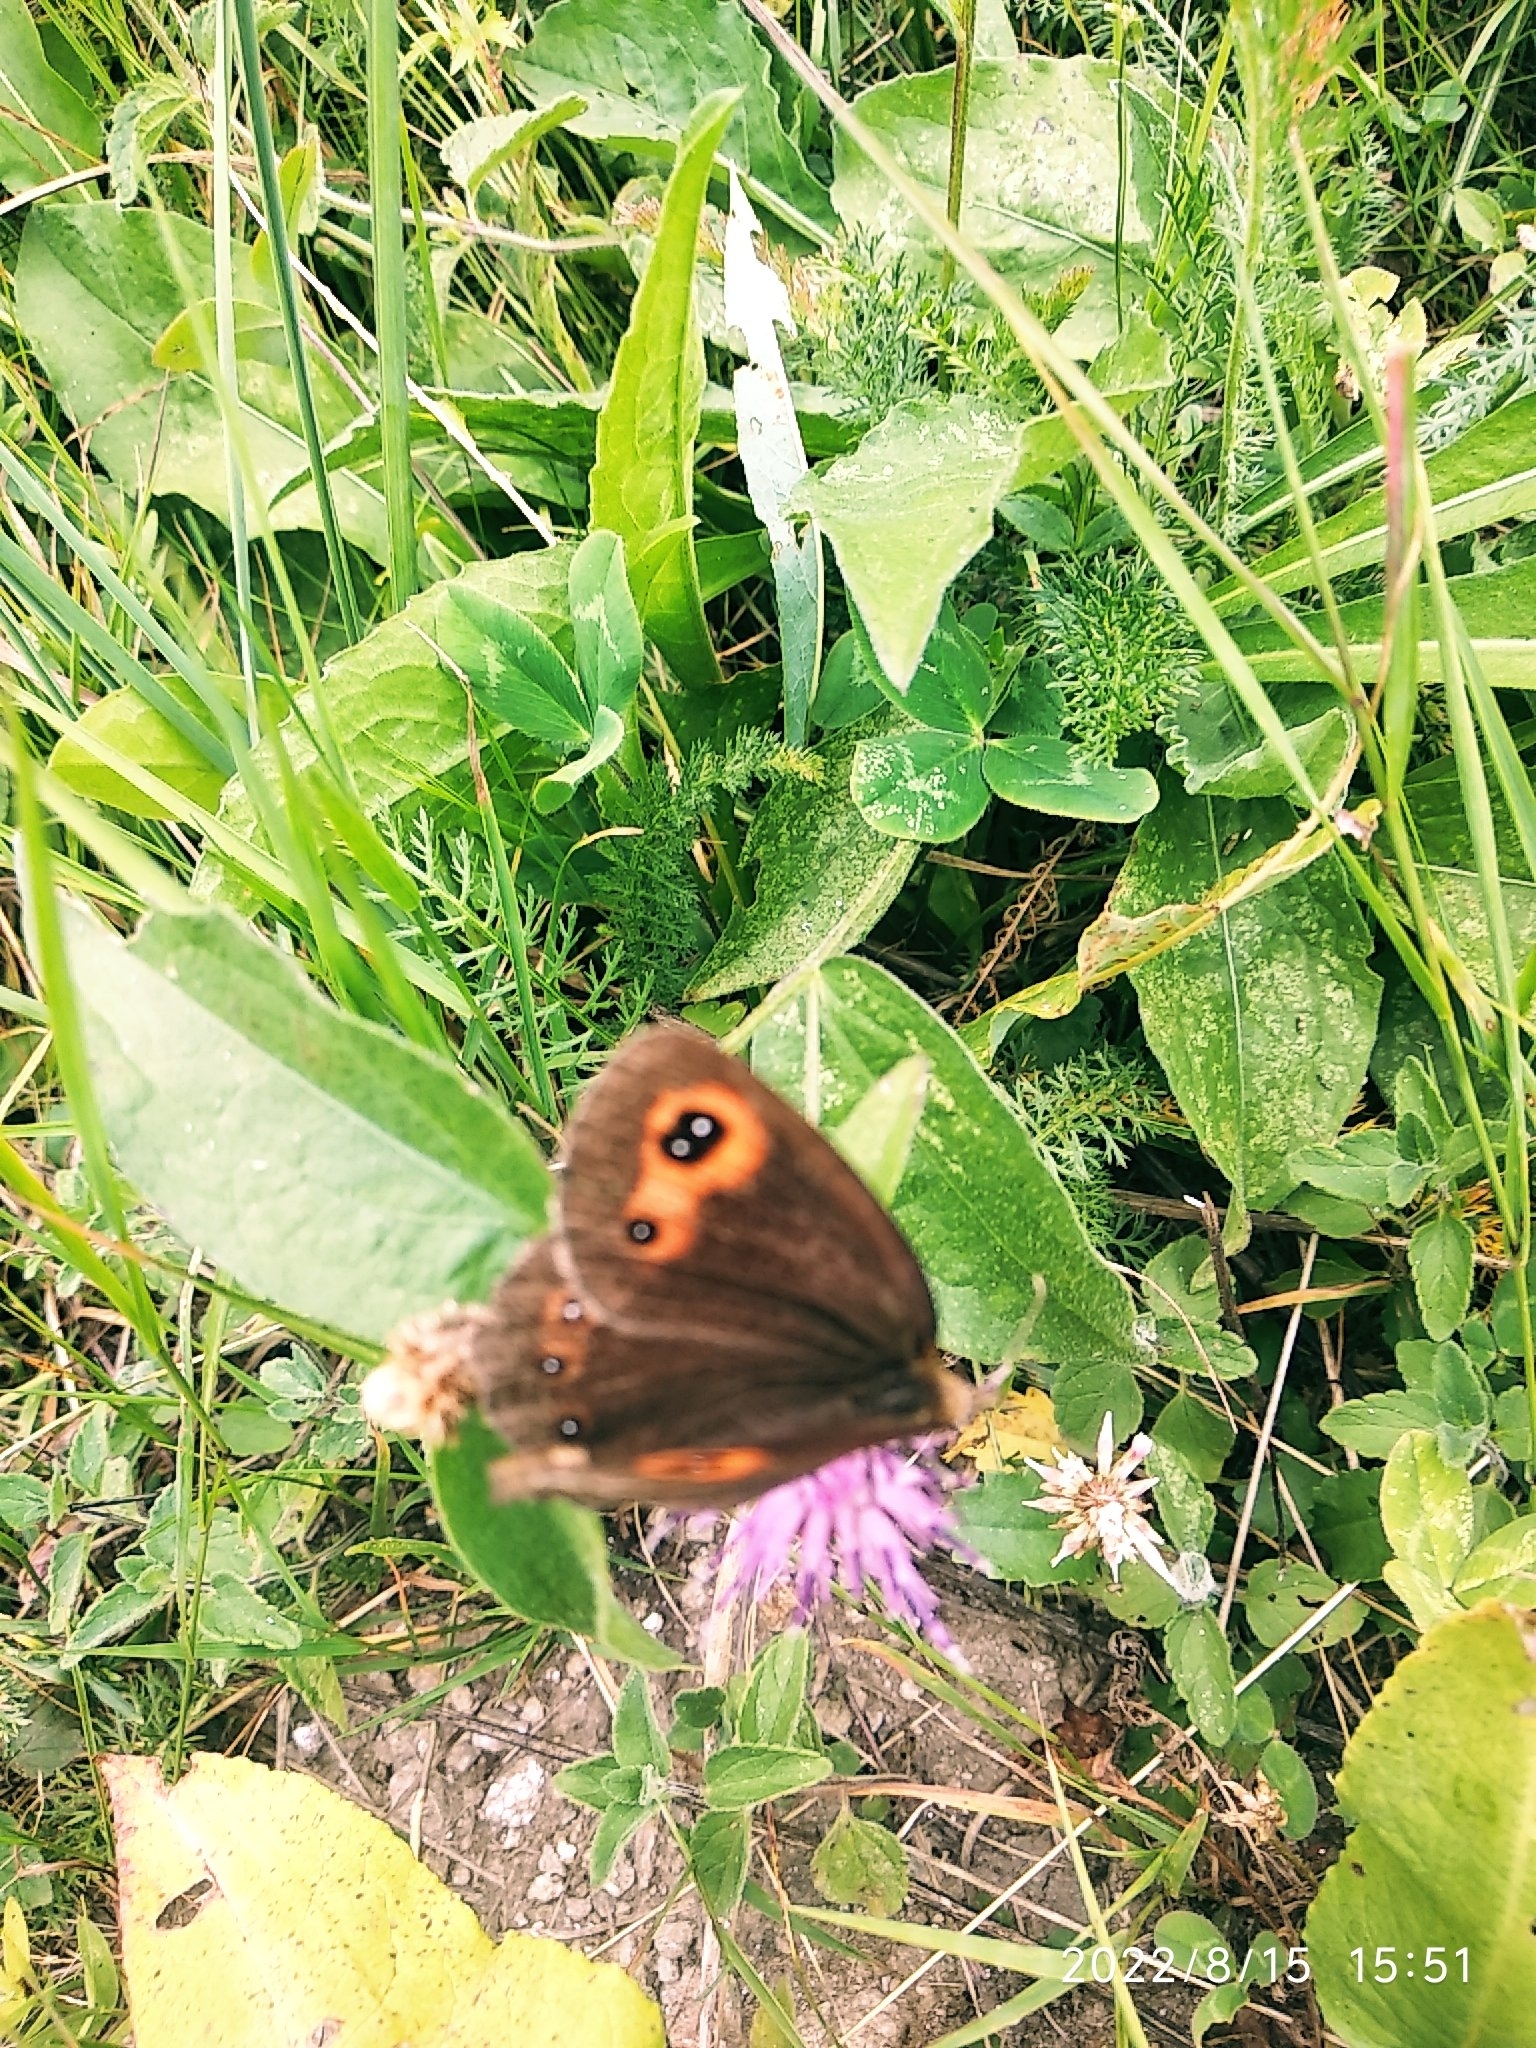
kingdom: Animalia
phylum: Arthropoda
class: Insecta
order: Lepidoptera
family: Nymphalidae
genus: Erebia
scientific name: Erebia aethiops
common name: Scotch argus
